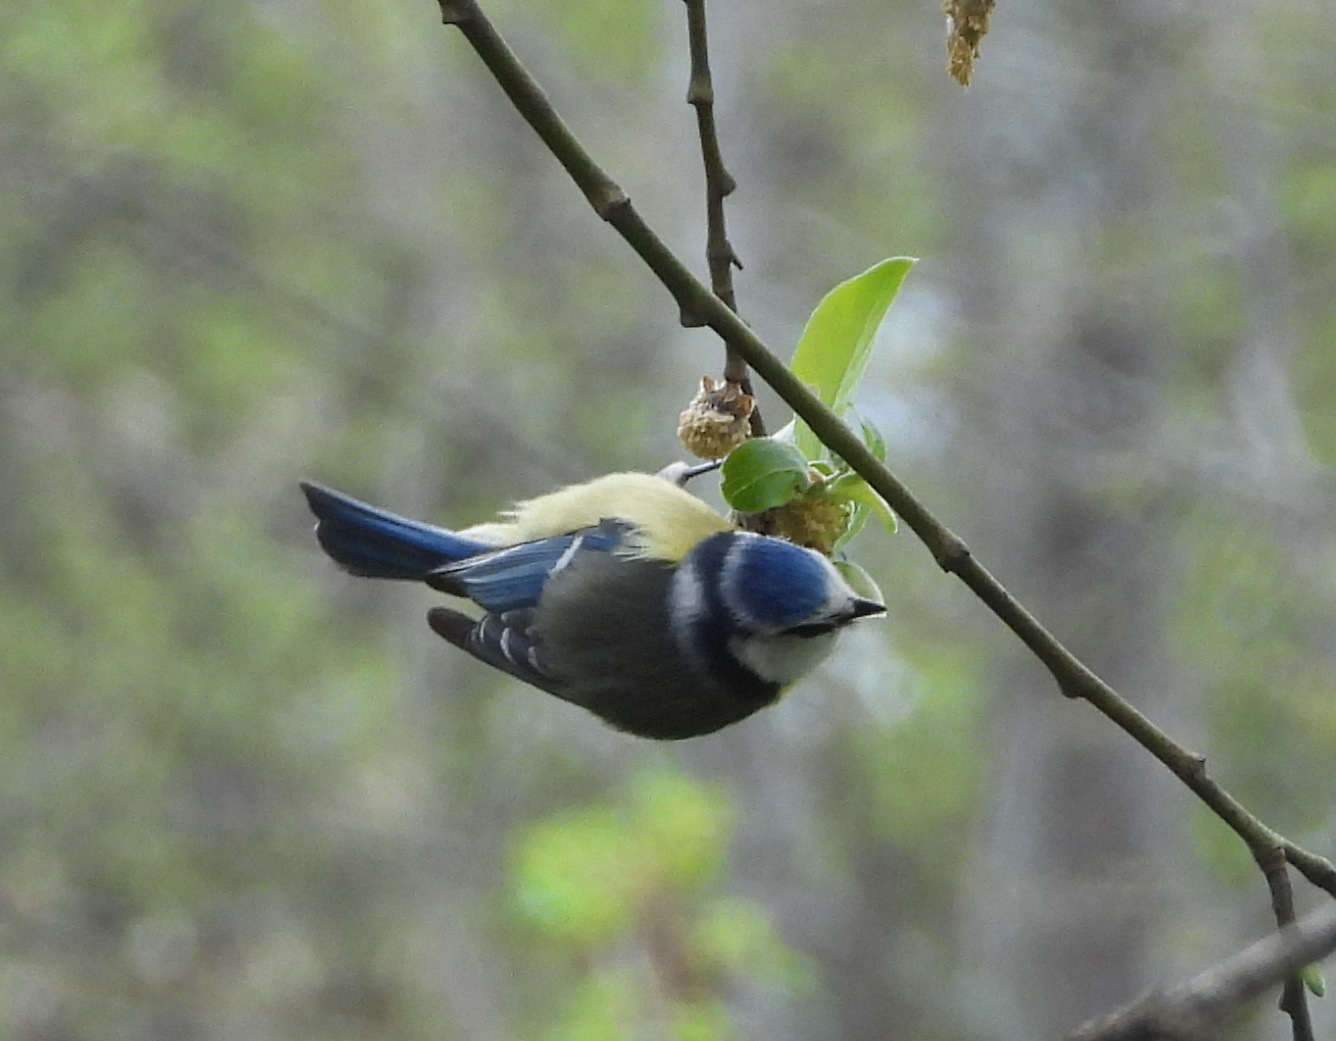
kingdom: Animalia
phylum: Chordata
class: Aves
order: Passeriformes
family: Paridae
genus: Cyanistes
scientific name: Cyanistes caeruleus
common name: Eurasian blue tit
